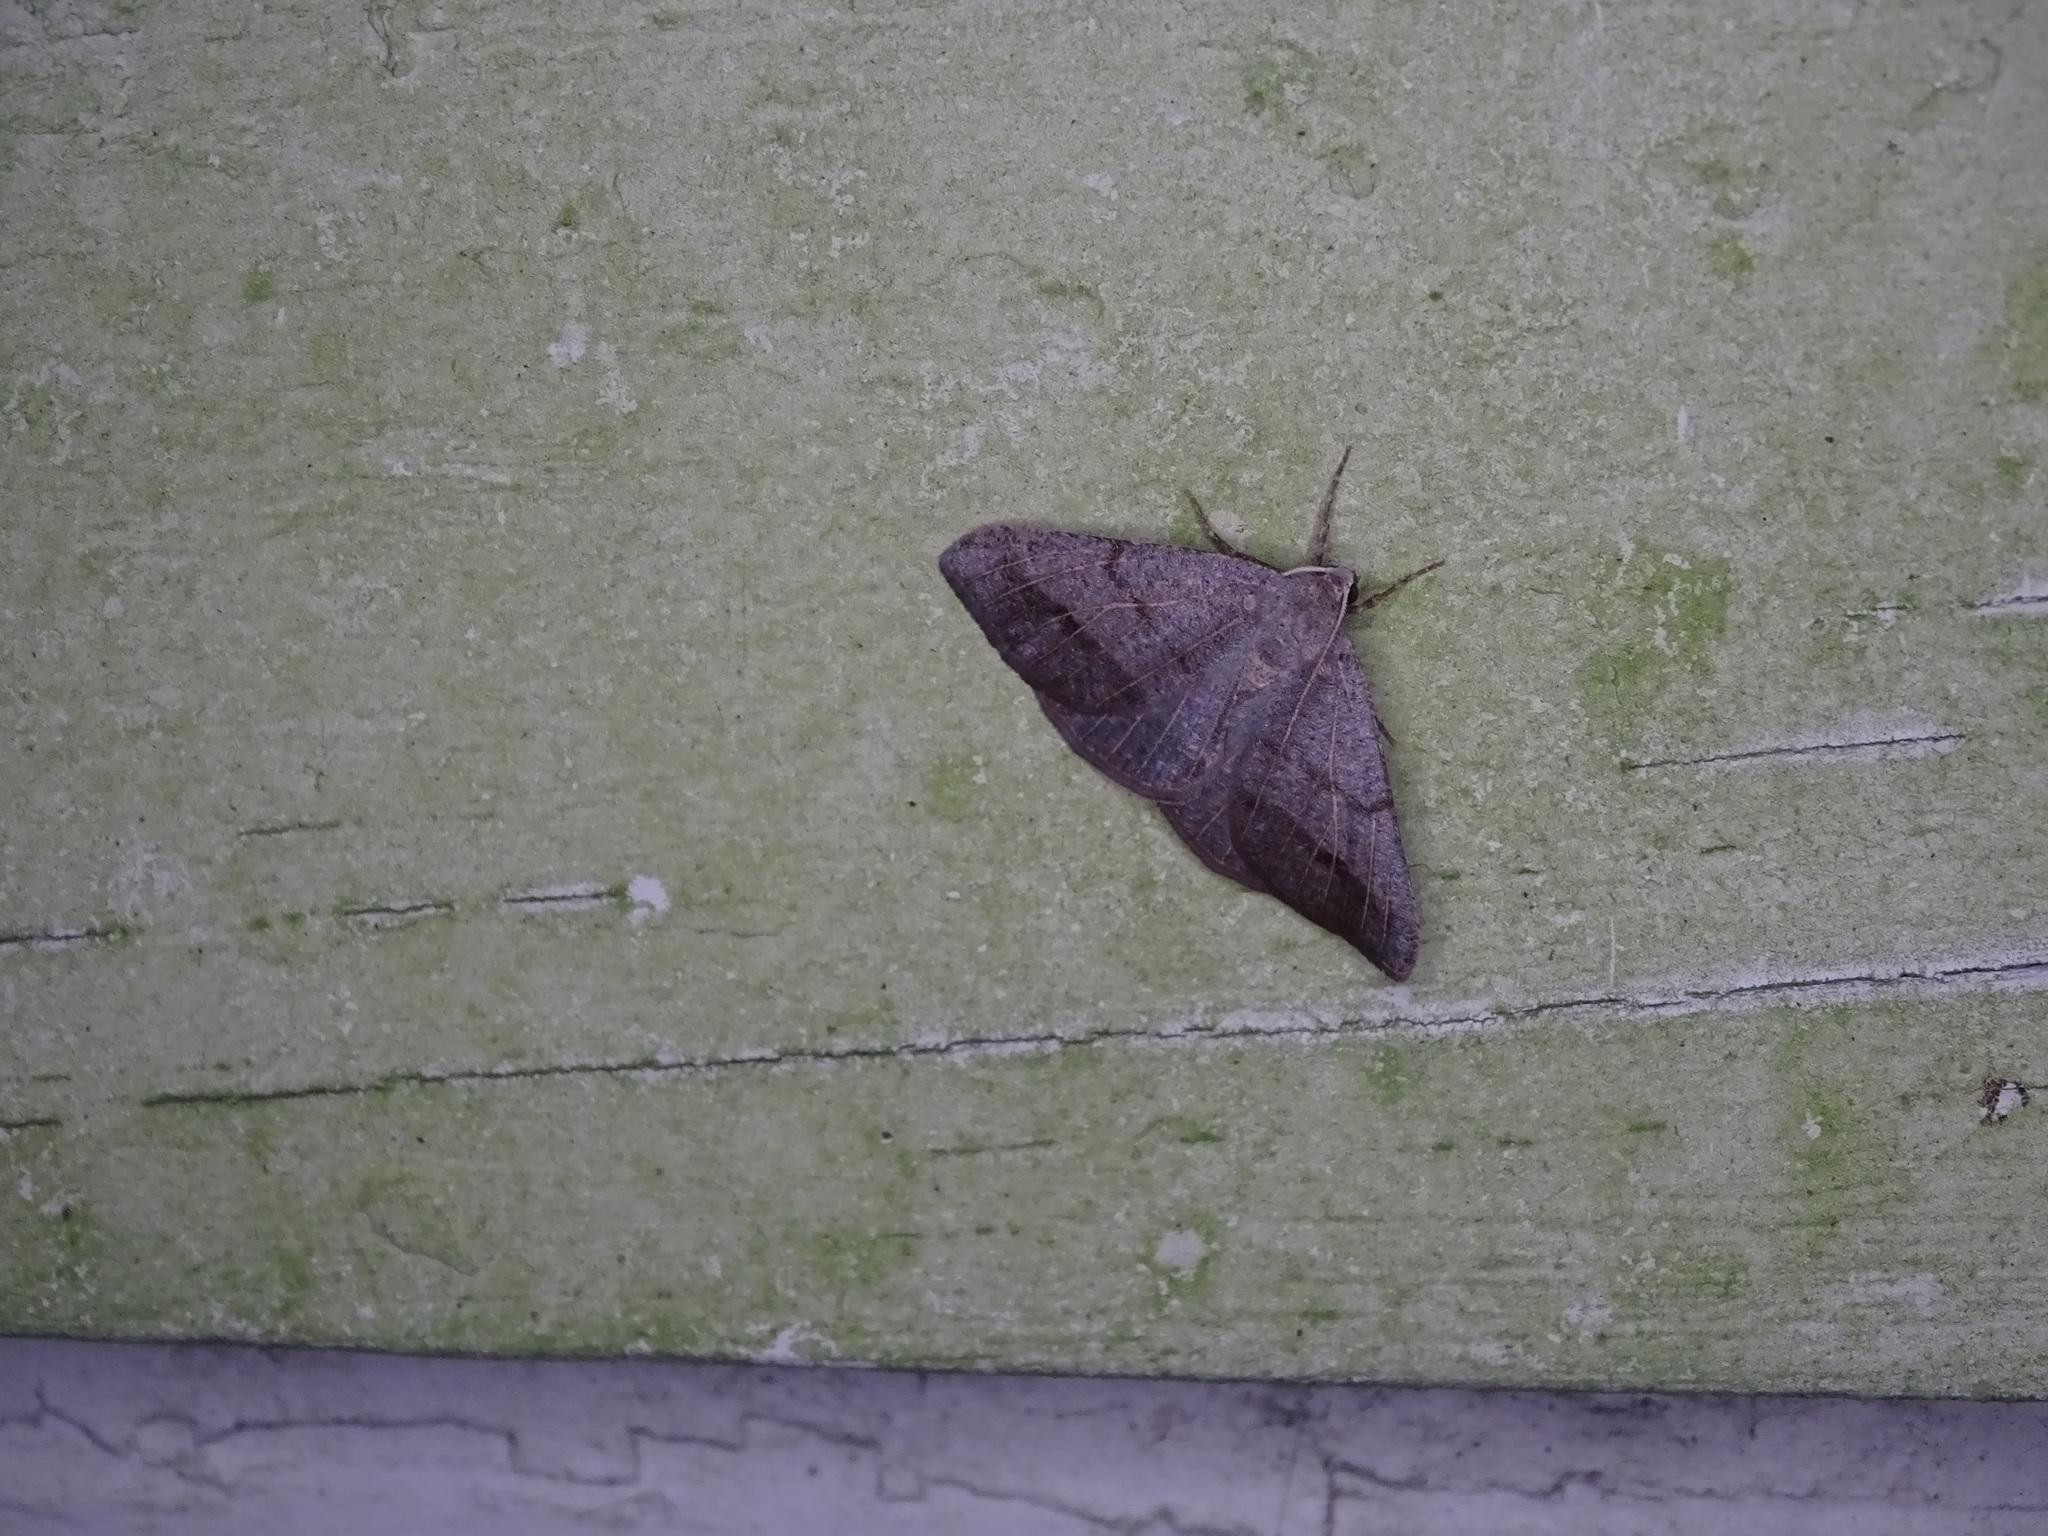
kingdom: Animalia
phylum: Arthropoda
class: Insecta
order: Lepidoptera
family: Geometridae
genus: Isturgia
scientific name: Isturgia dislocaria
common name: Pale-viened enconista
